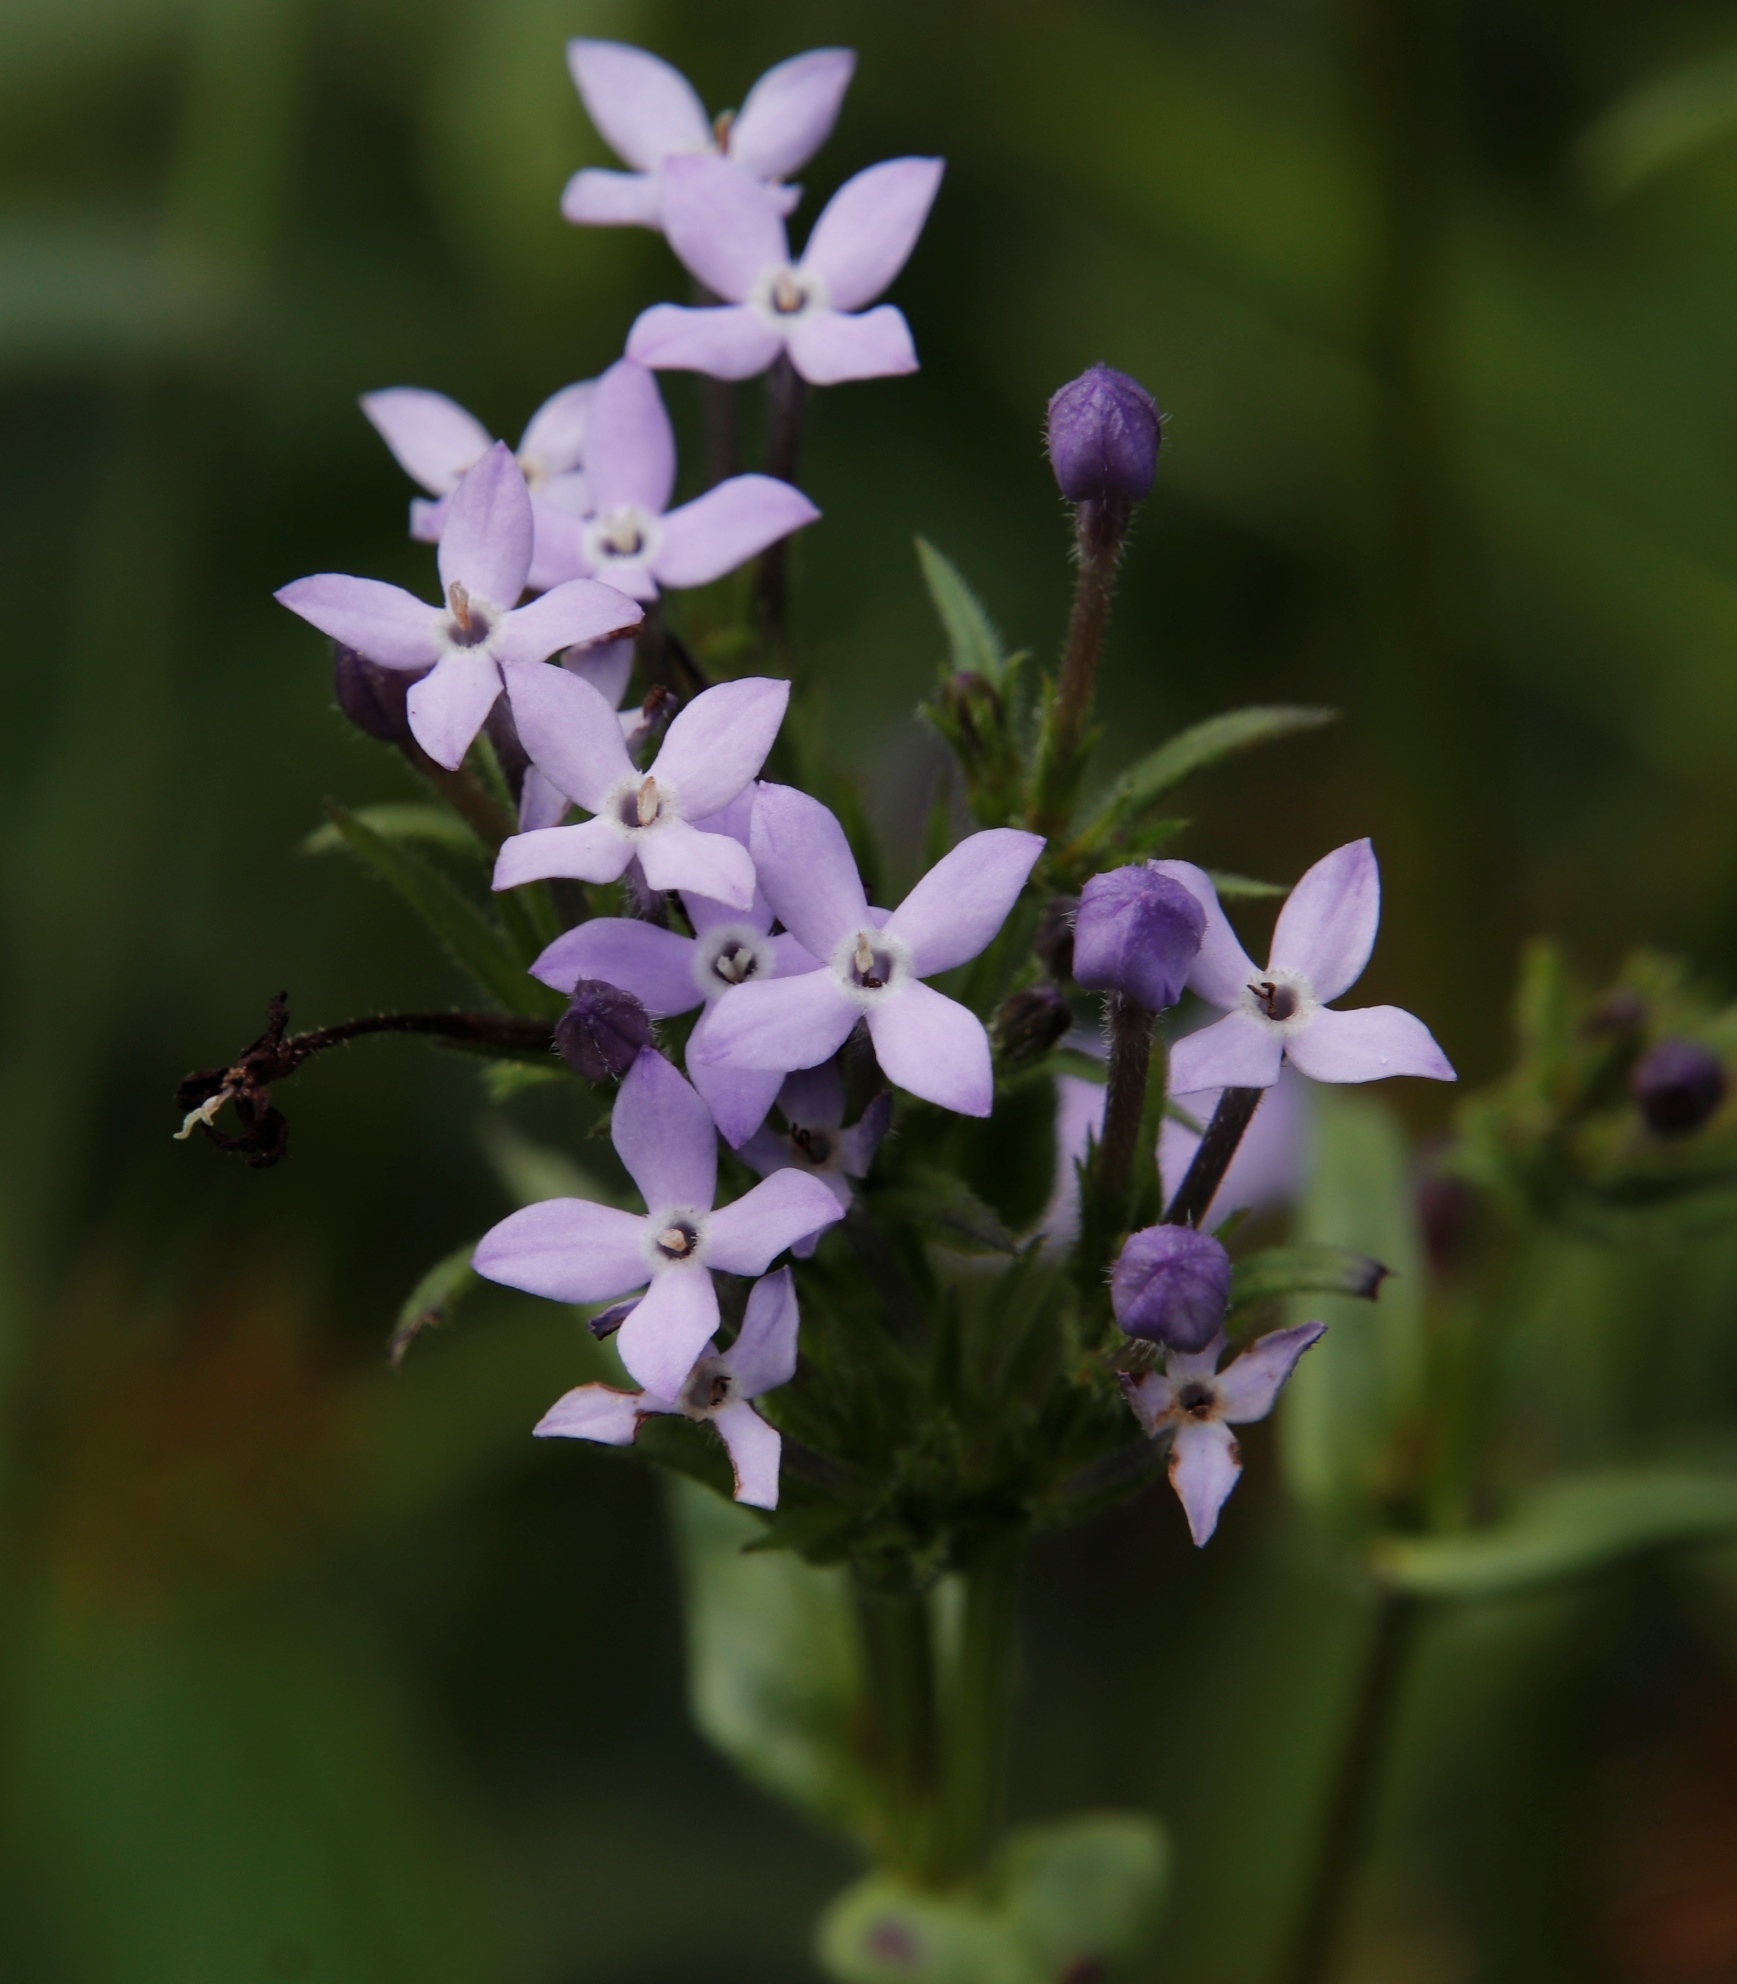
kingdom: Plantae
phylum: Tracheophyta
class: Magnoliopsida
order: Gentianales
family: Rubiaceae
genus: Conostomium
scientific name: Conostomium natalense
